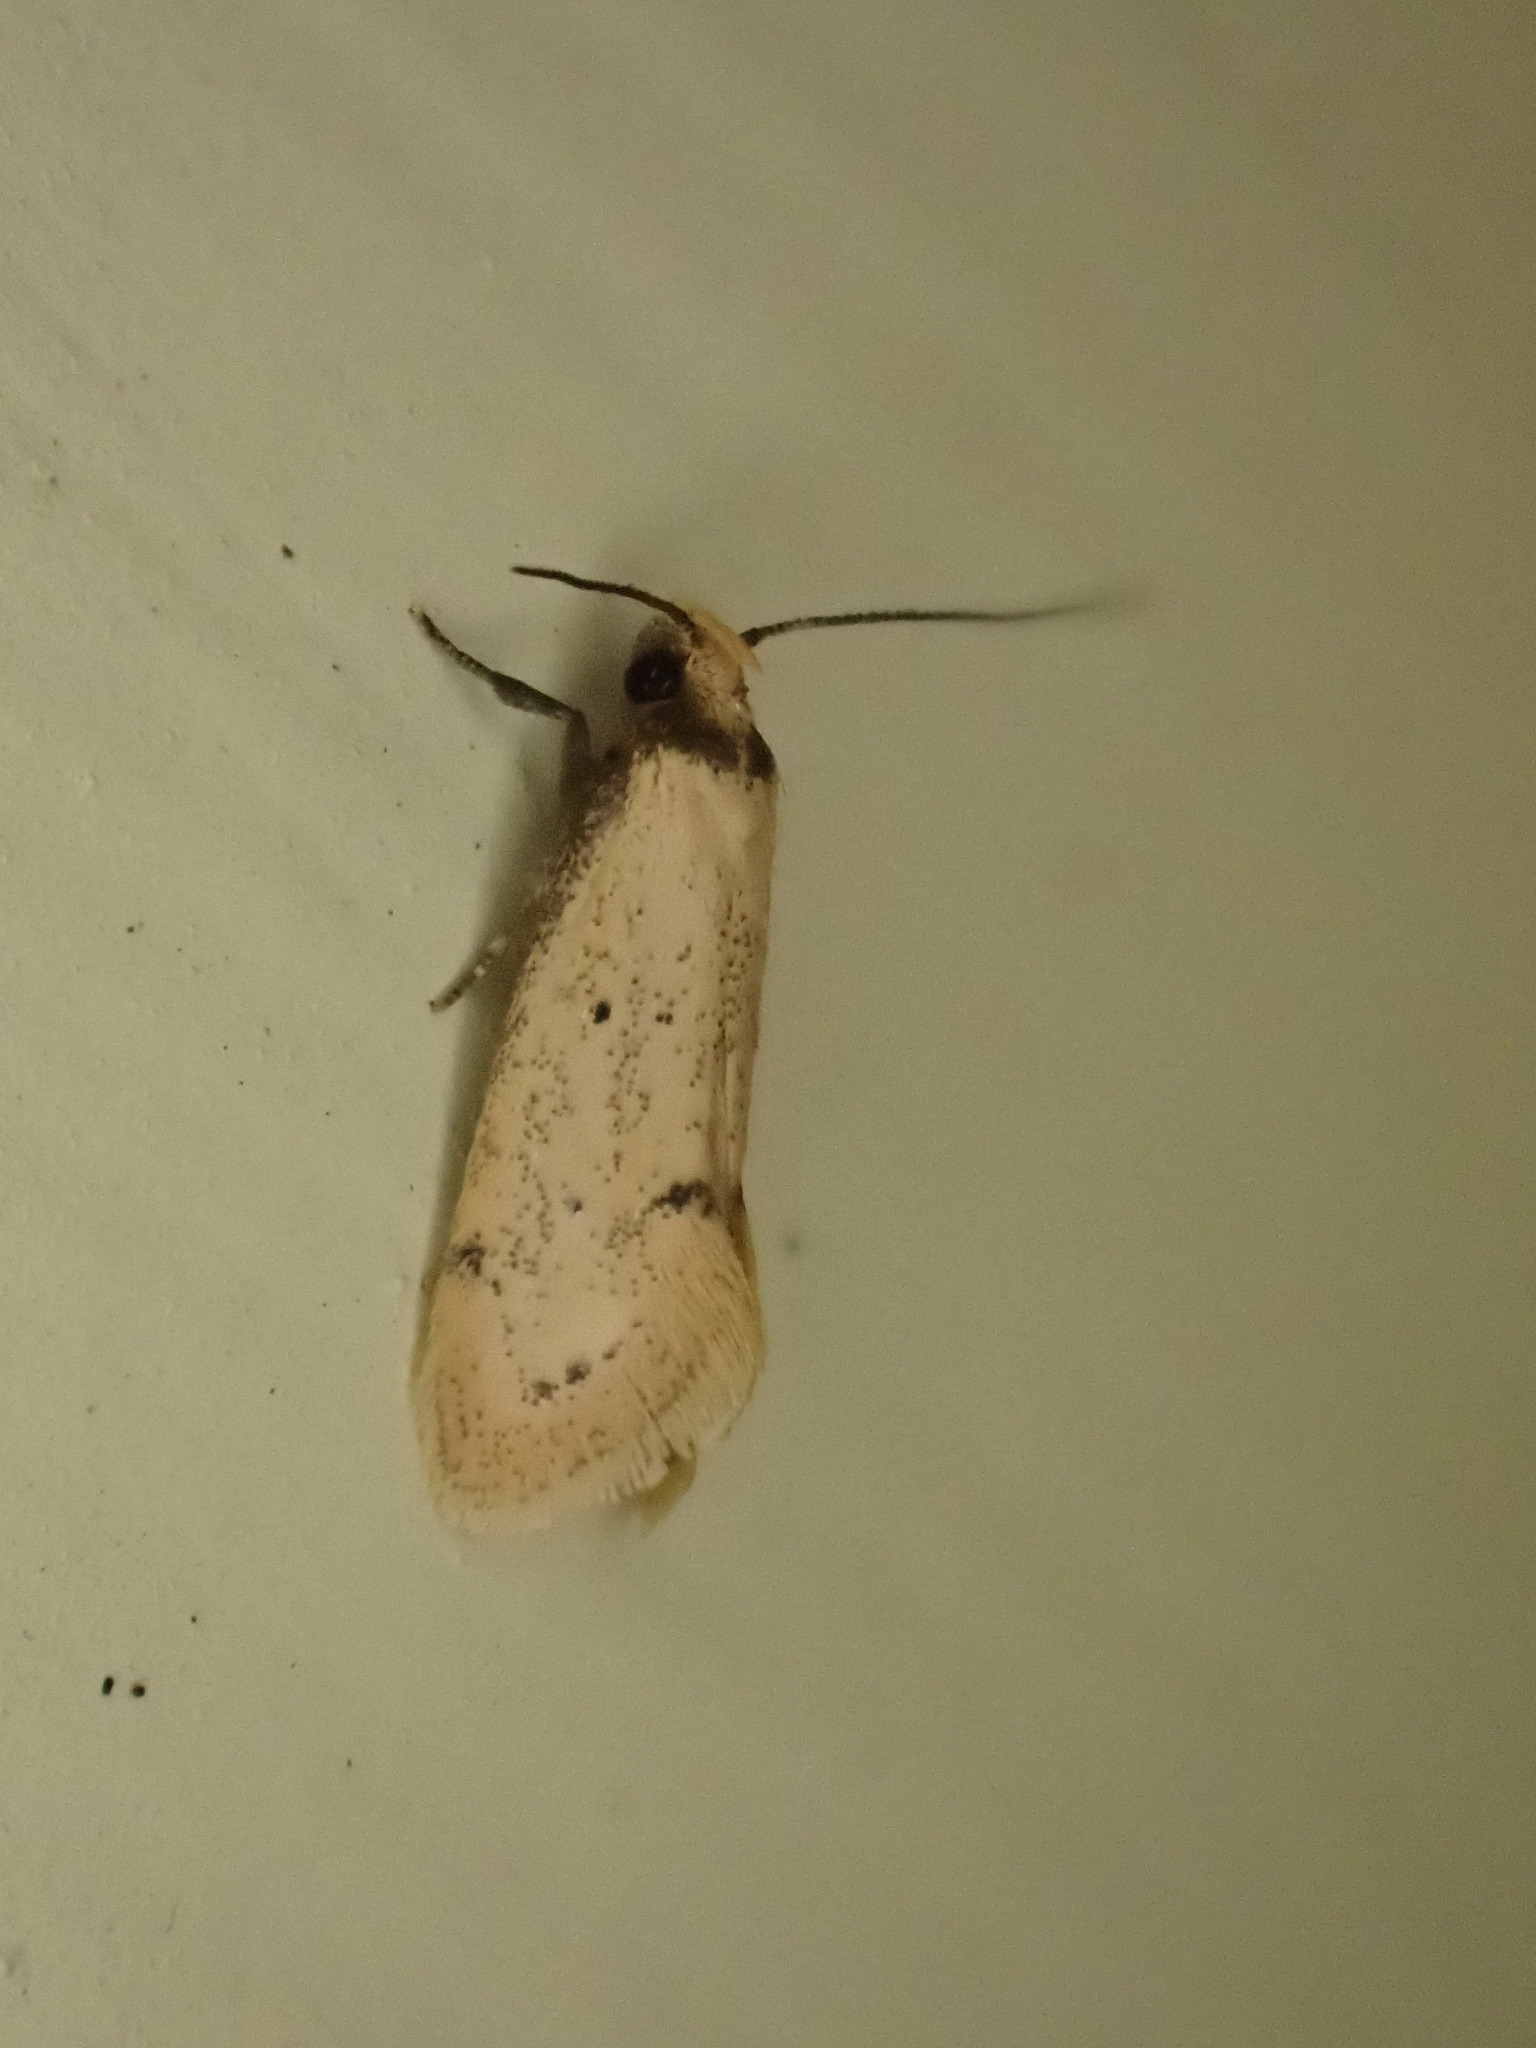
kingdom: Animalia
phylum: Arthropoda
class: Insecta
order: Lepidoptera
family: Oecophoridae
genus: Atalopsis
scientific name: Atalopsis
